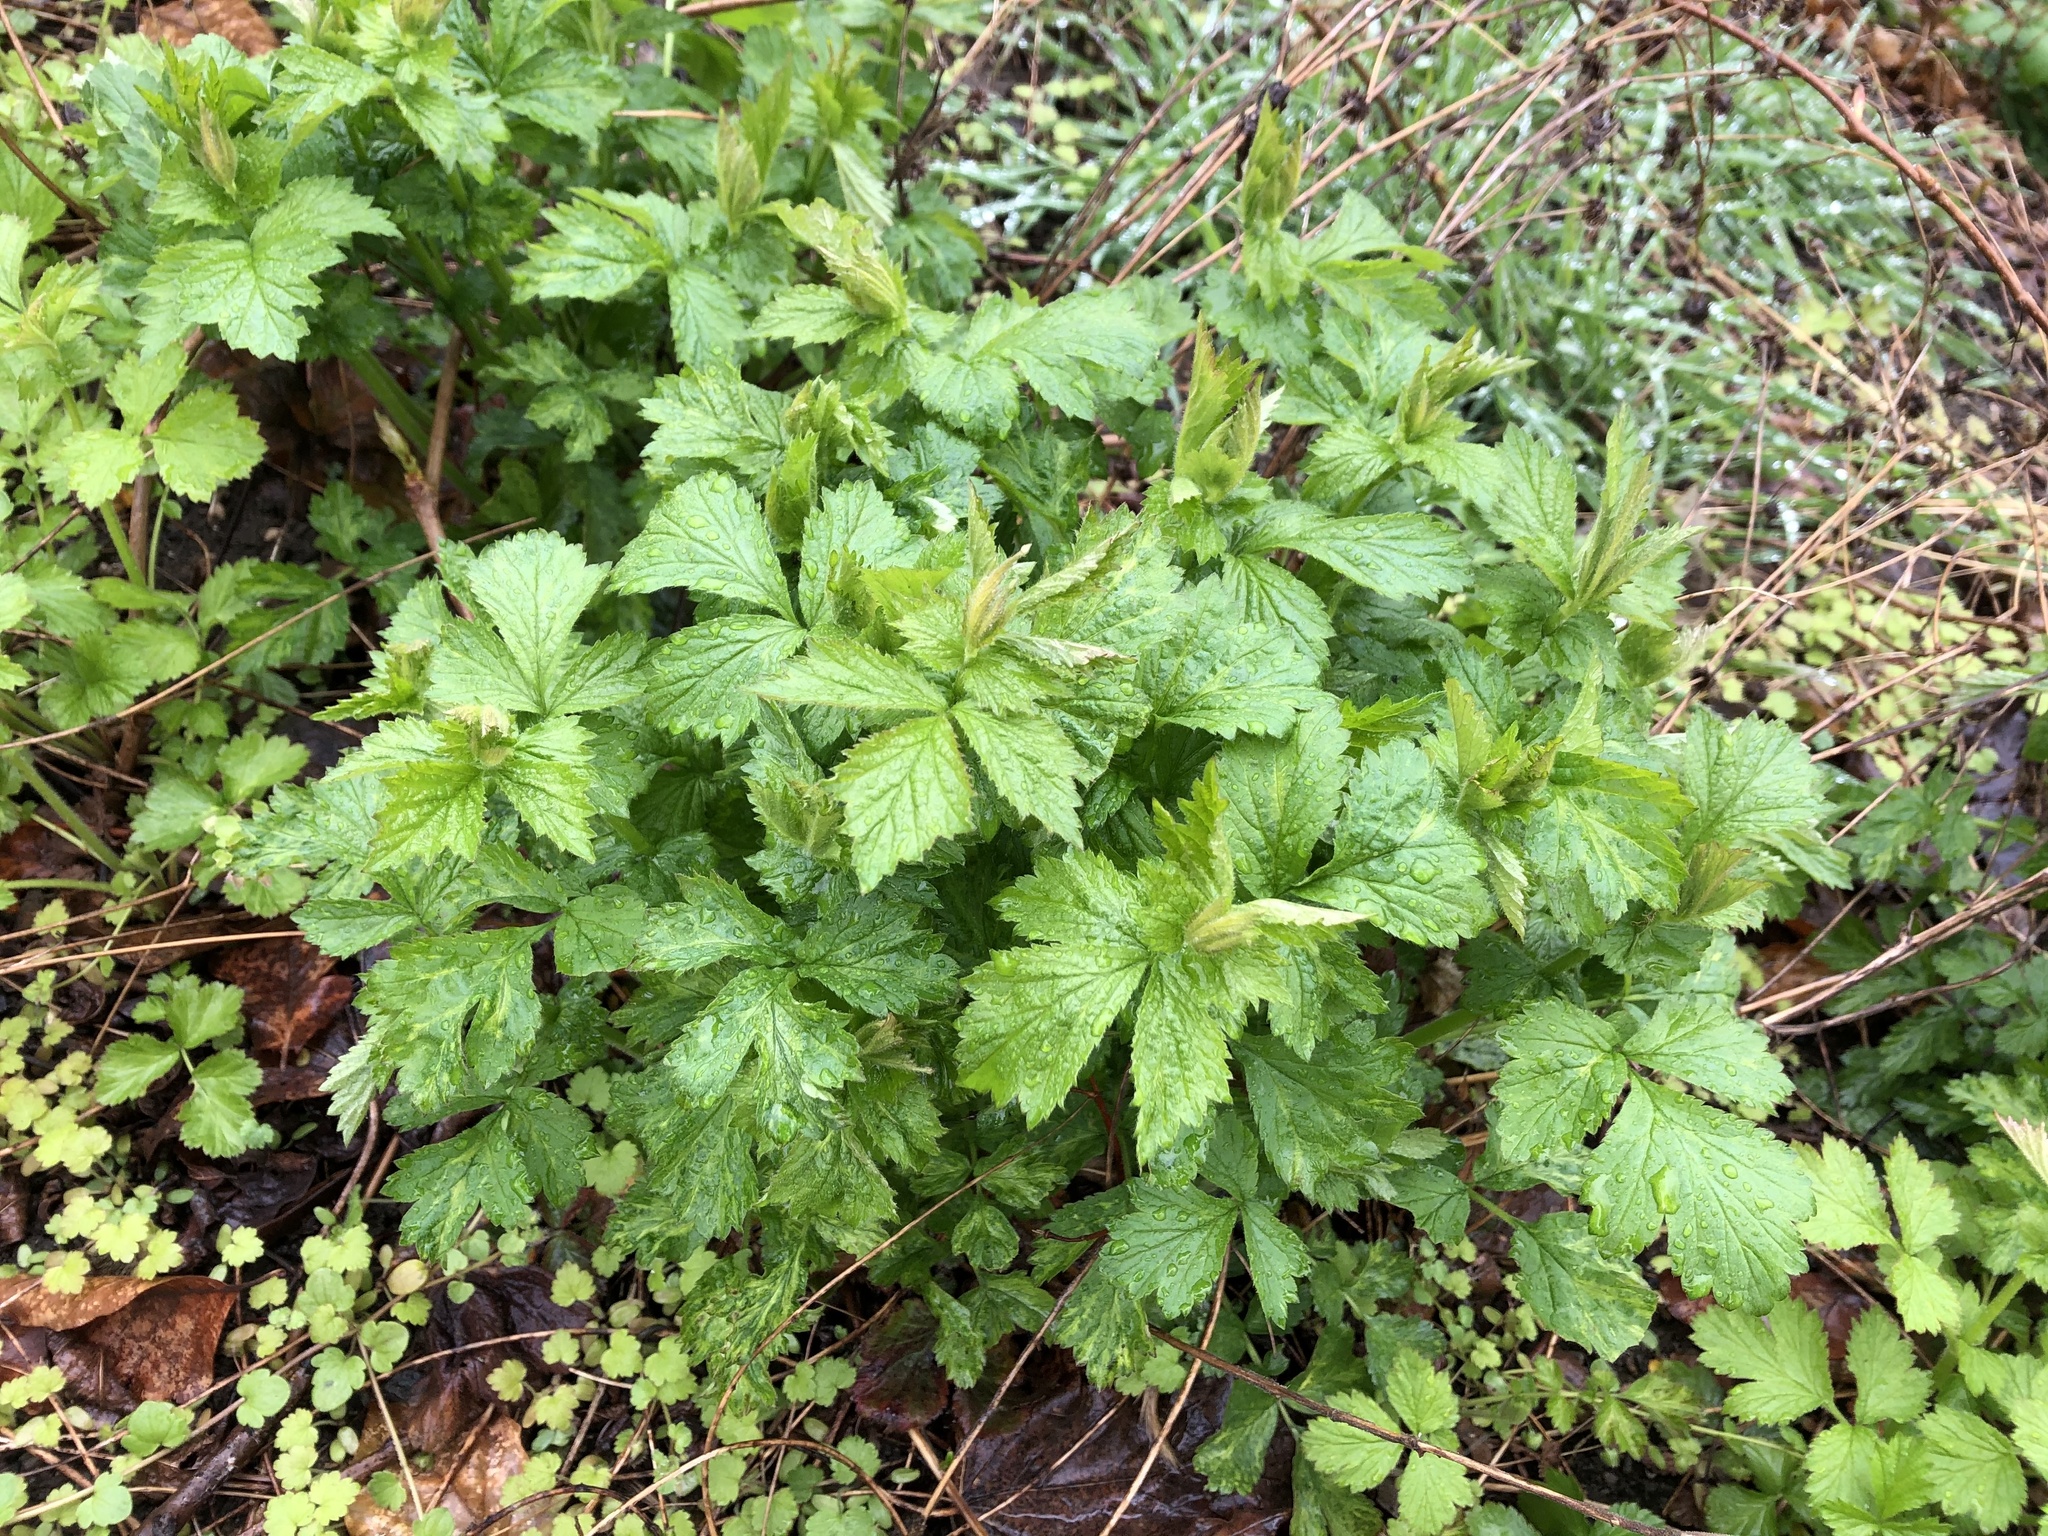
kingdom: Plantae
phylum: Tracheophyta
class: Magnoliopsida
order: Rosales
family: Rosaceae
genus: Geum
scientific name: Geum urbanum
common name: Wood avens
